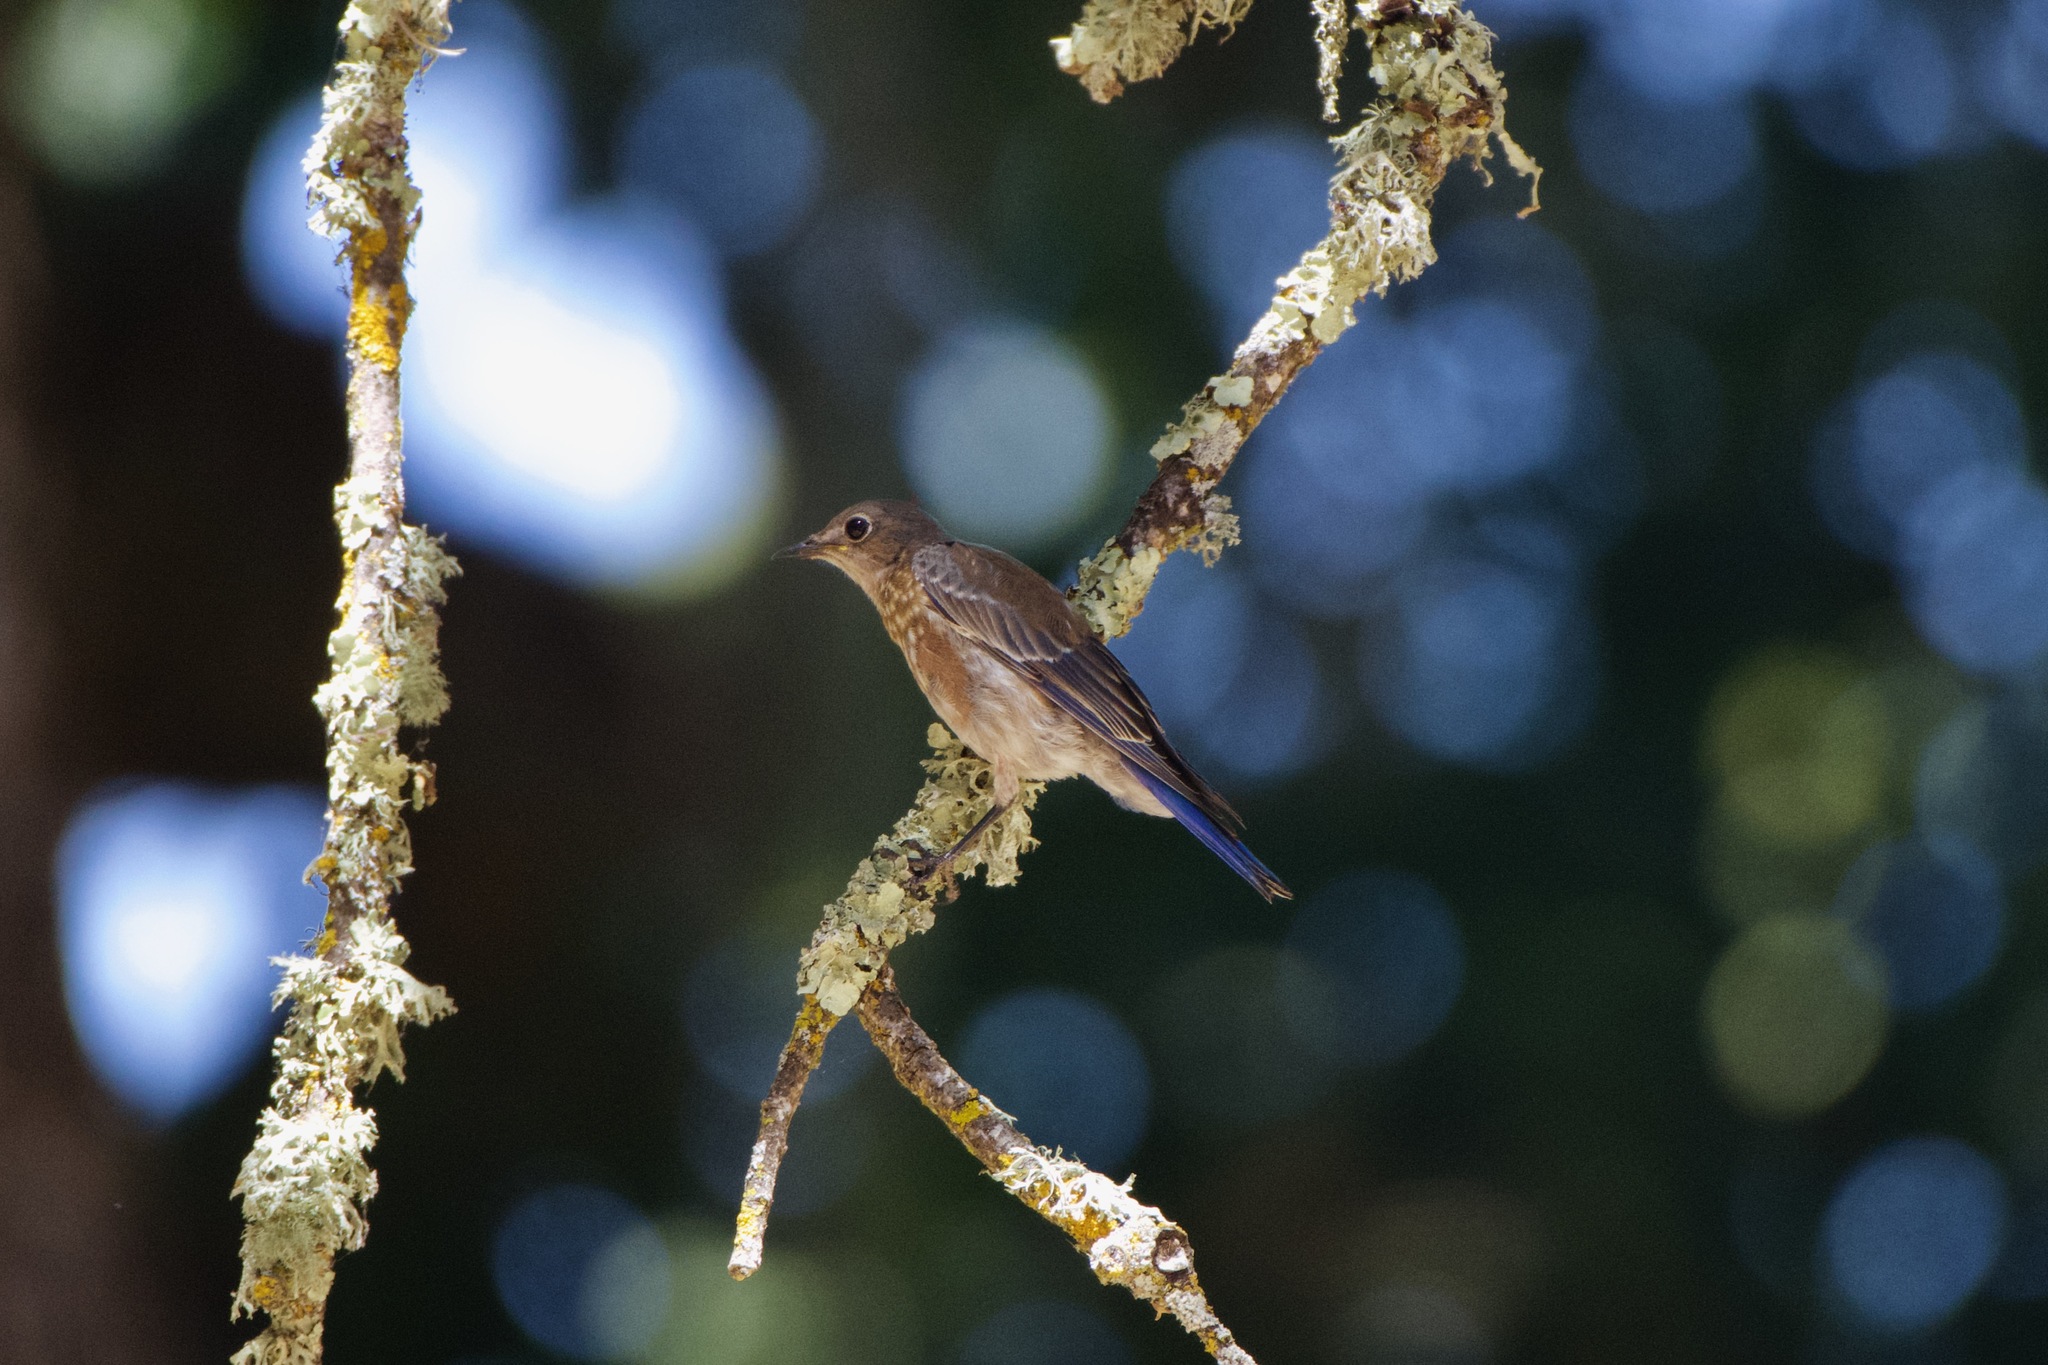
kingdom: Animalia
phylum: Chordata
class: Aves
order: Passeriformes
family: Turdidae
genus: Sialia
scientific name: Sialia mexicana
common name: Western bluebird
